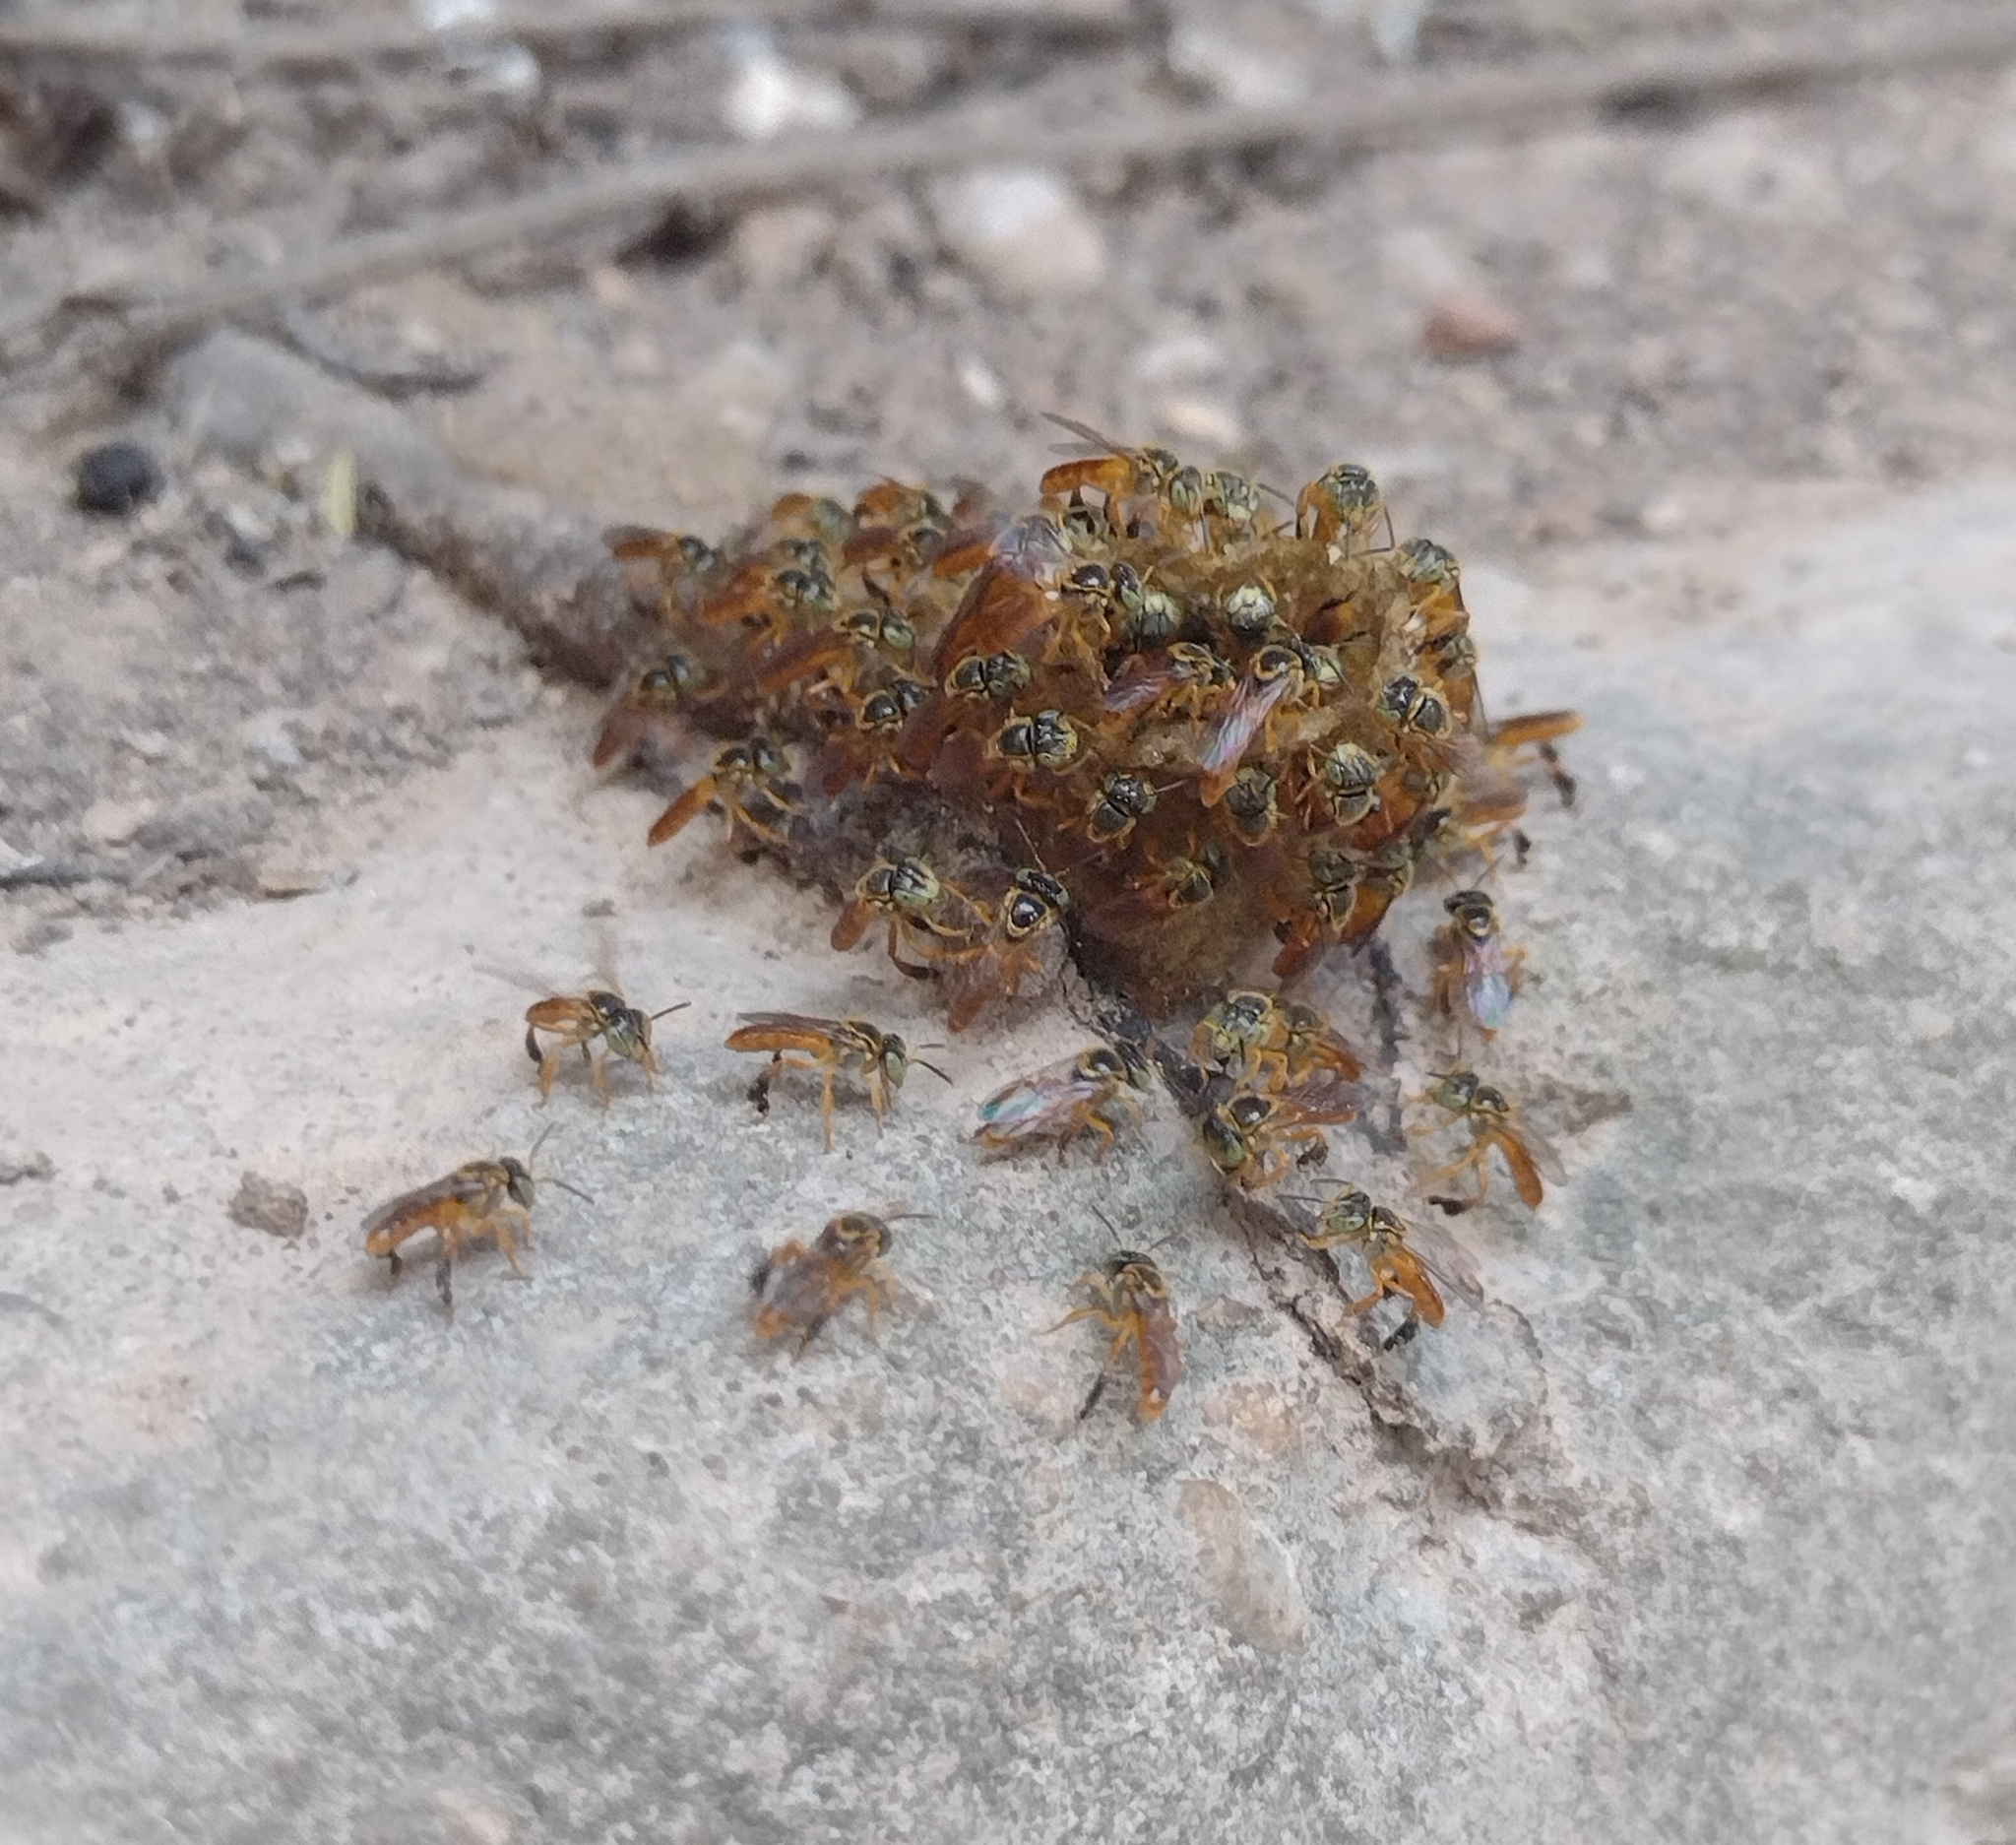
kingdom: Animalia
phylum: Arthropoda
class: Insecta
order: Hymenoptera
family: Apidae
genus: Tetragonisca
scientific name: Tetragonisca fiebrigi
